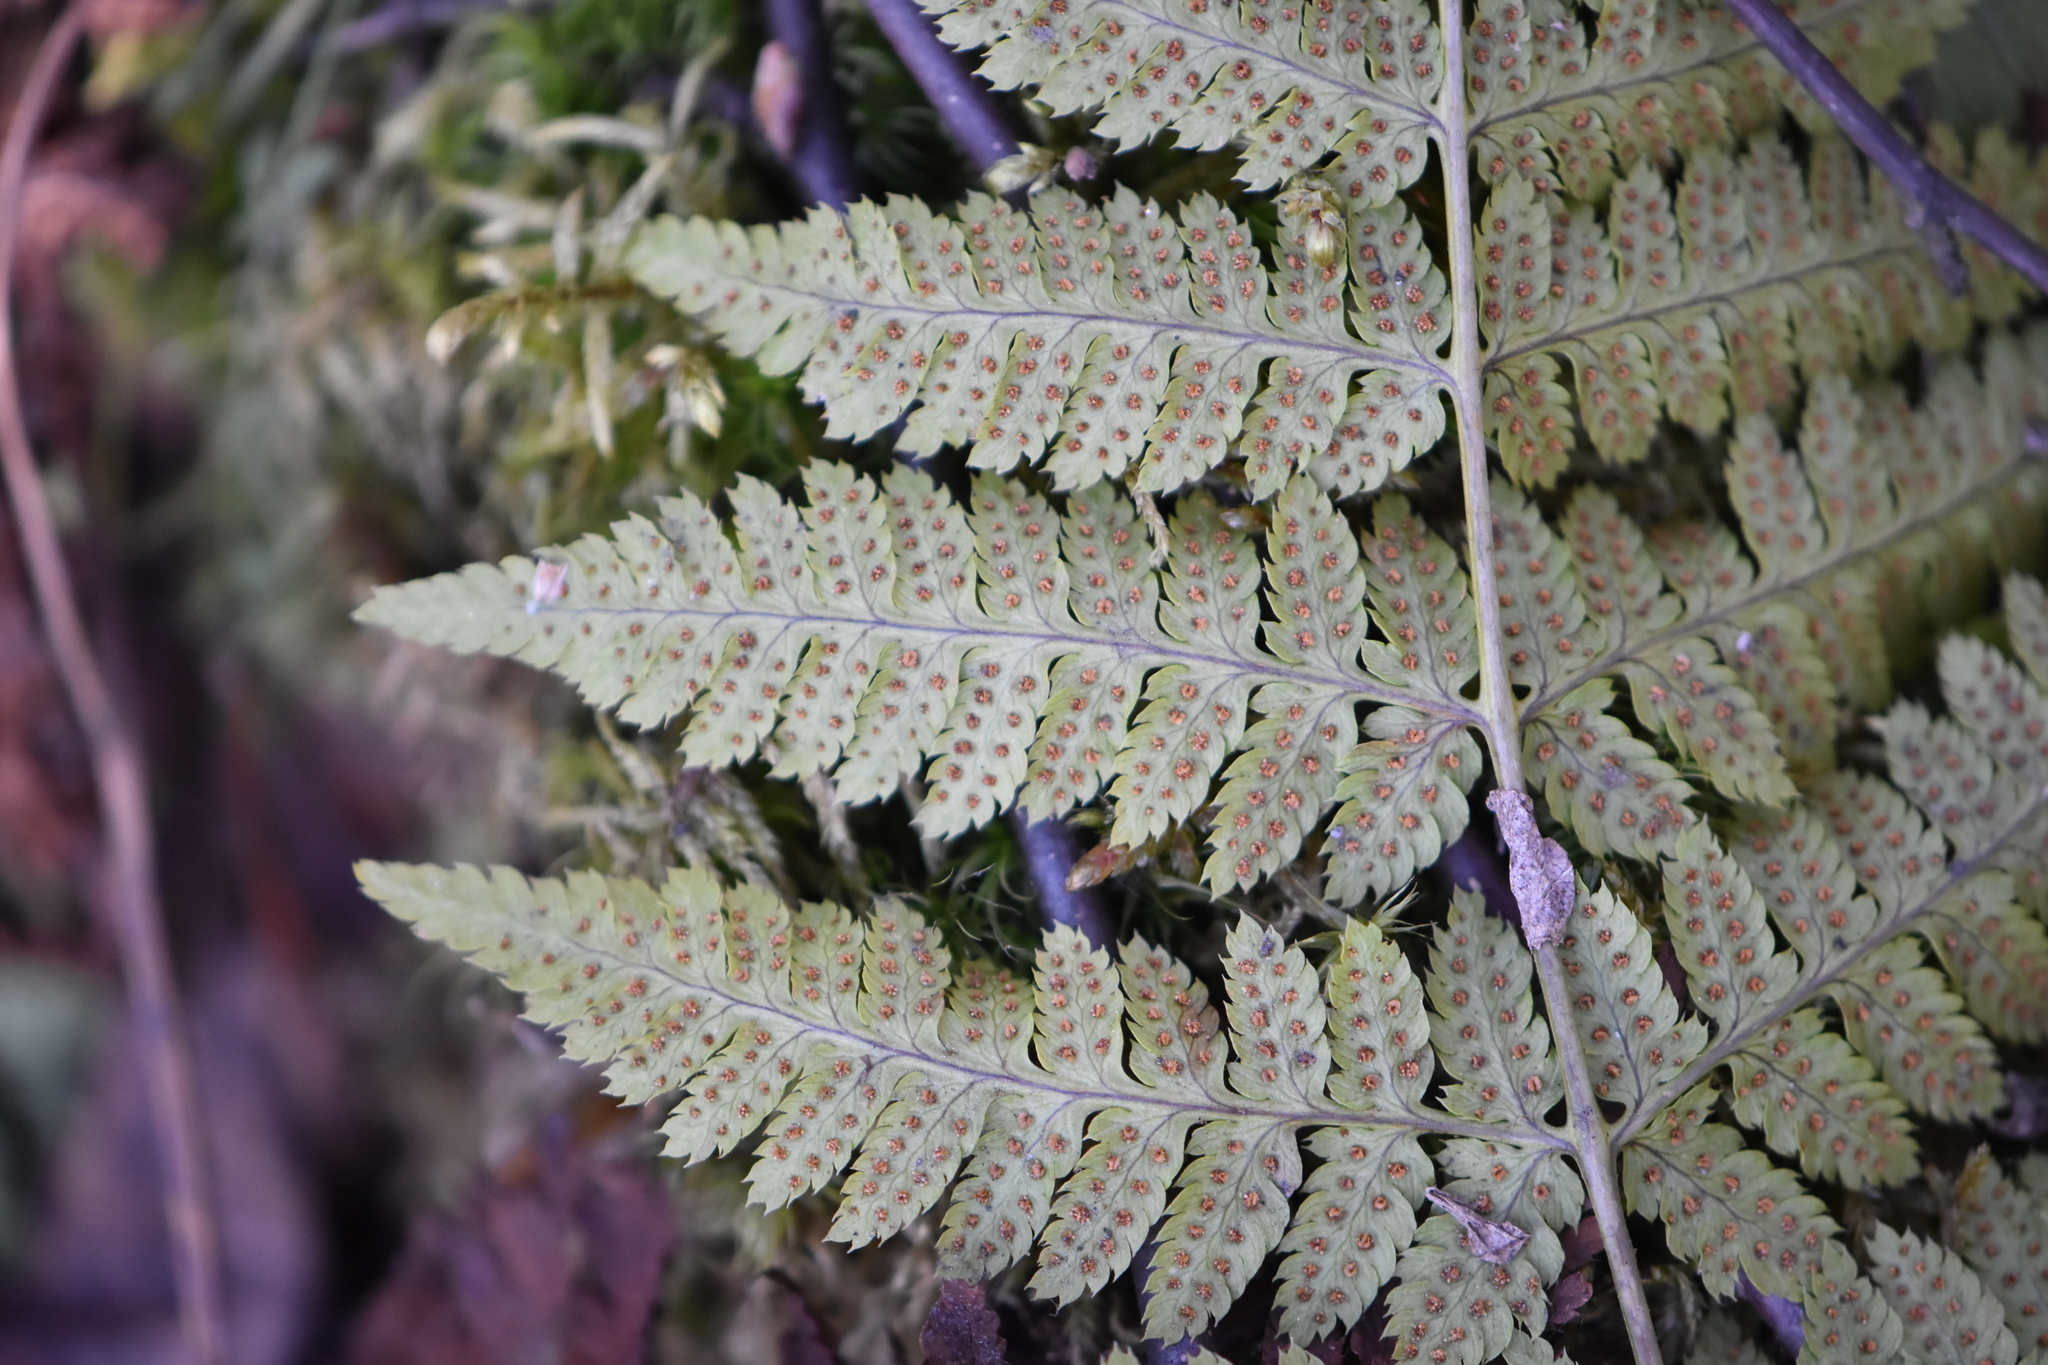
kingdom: Plantae
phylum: Tracheophyta
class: Polypodiopsida
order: Polypodiales
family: Dryopteridaceae
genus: Dryopteris
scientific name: Dryopteris carthusiana
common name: Narrow buckler-fern
